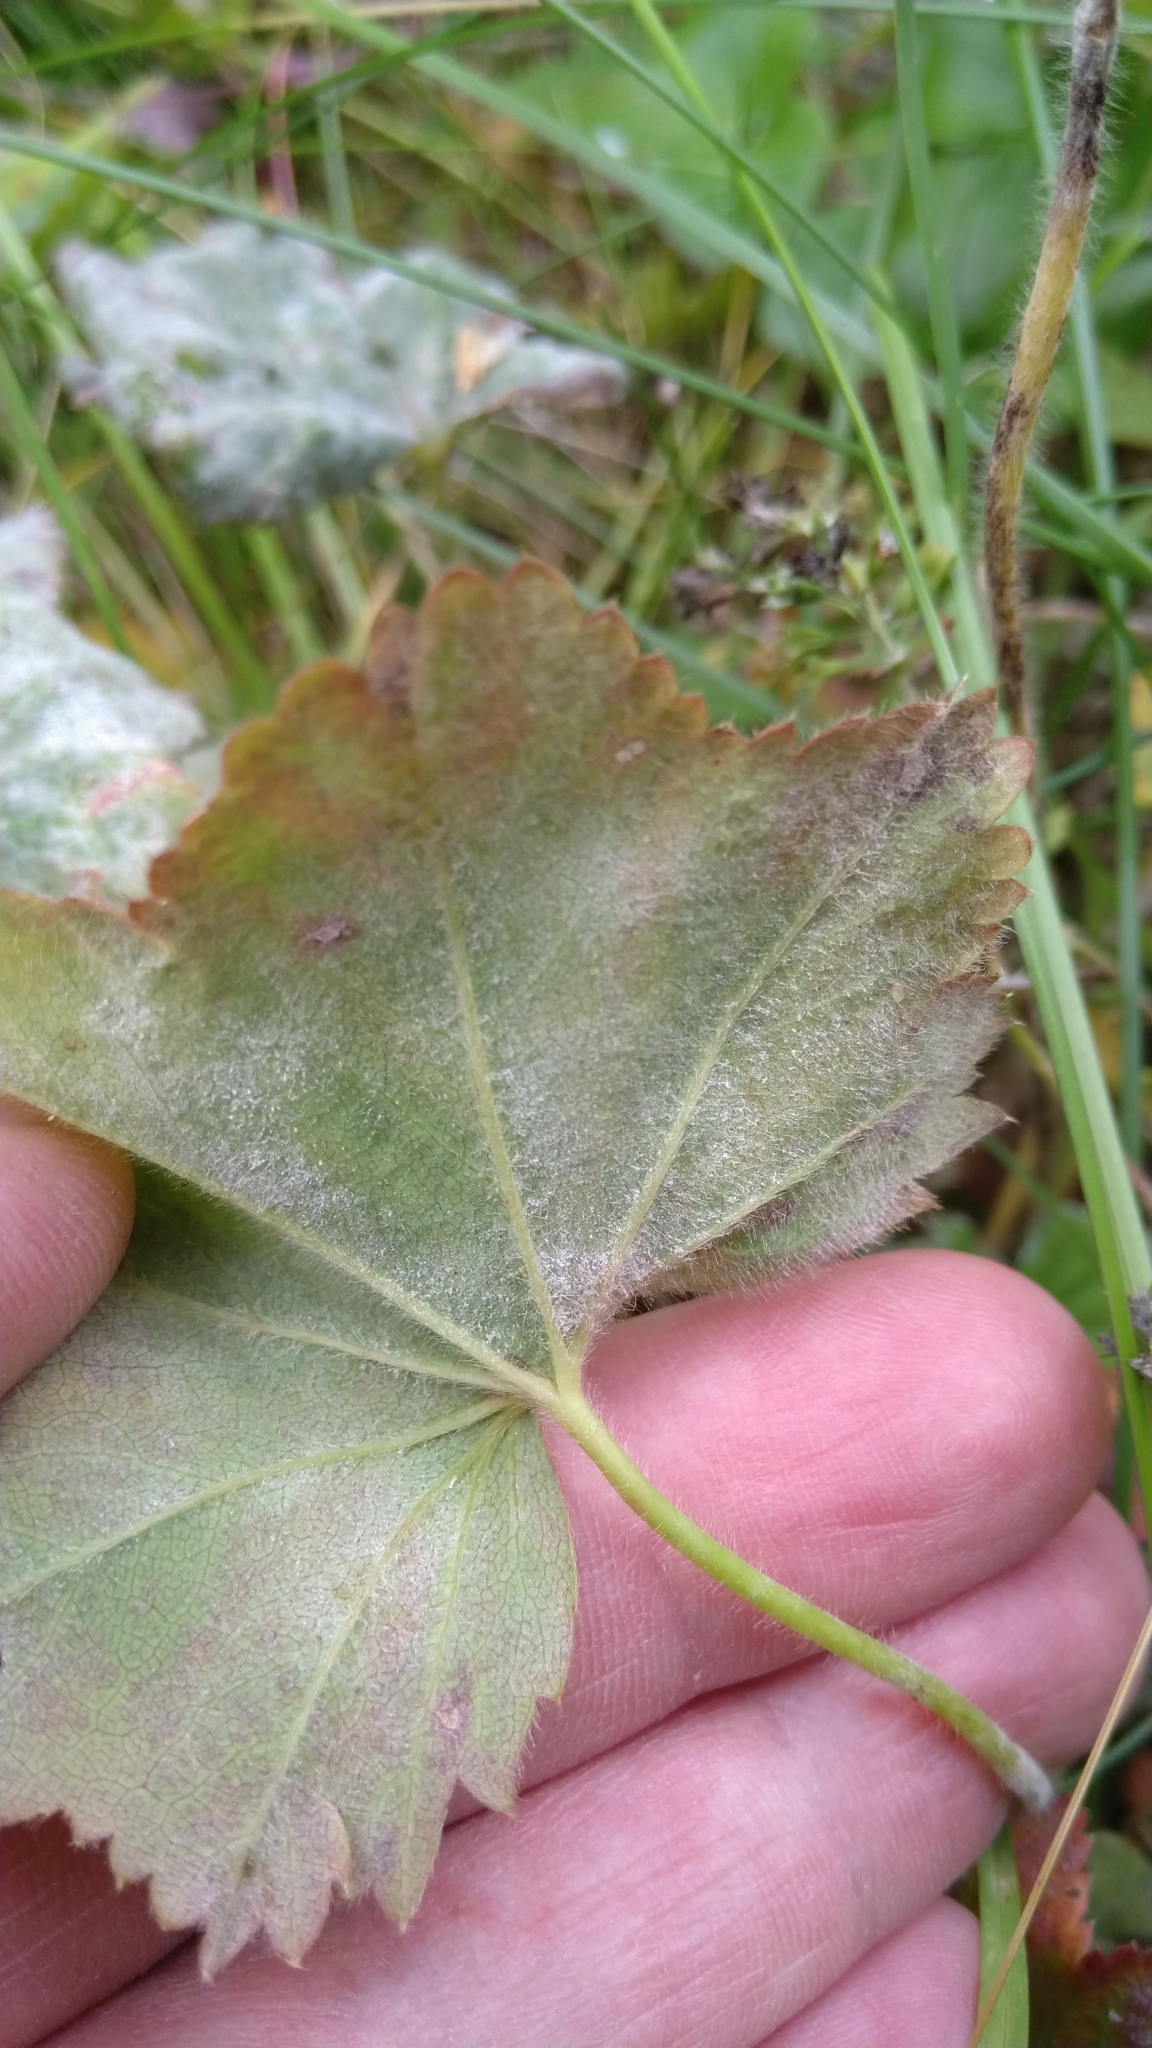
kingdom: Fungi
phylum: Ascomycota
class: Leotiomycetes
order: Helotiales
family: Erysiphaceae
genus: Podosphaera
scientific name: Podosphaera aphanis
